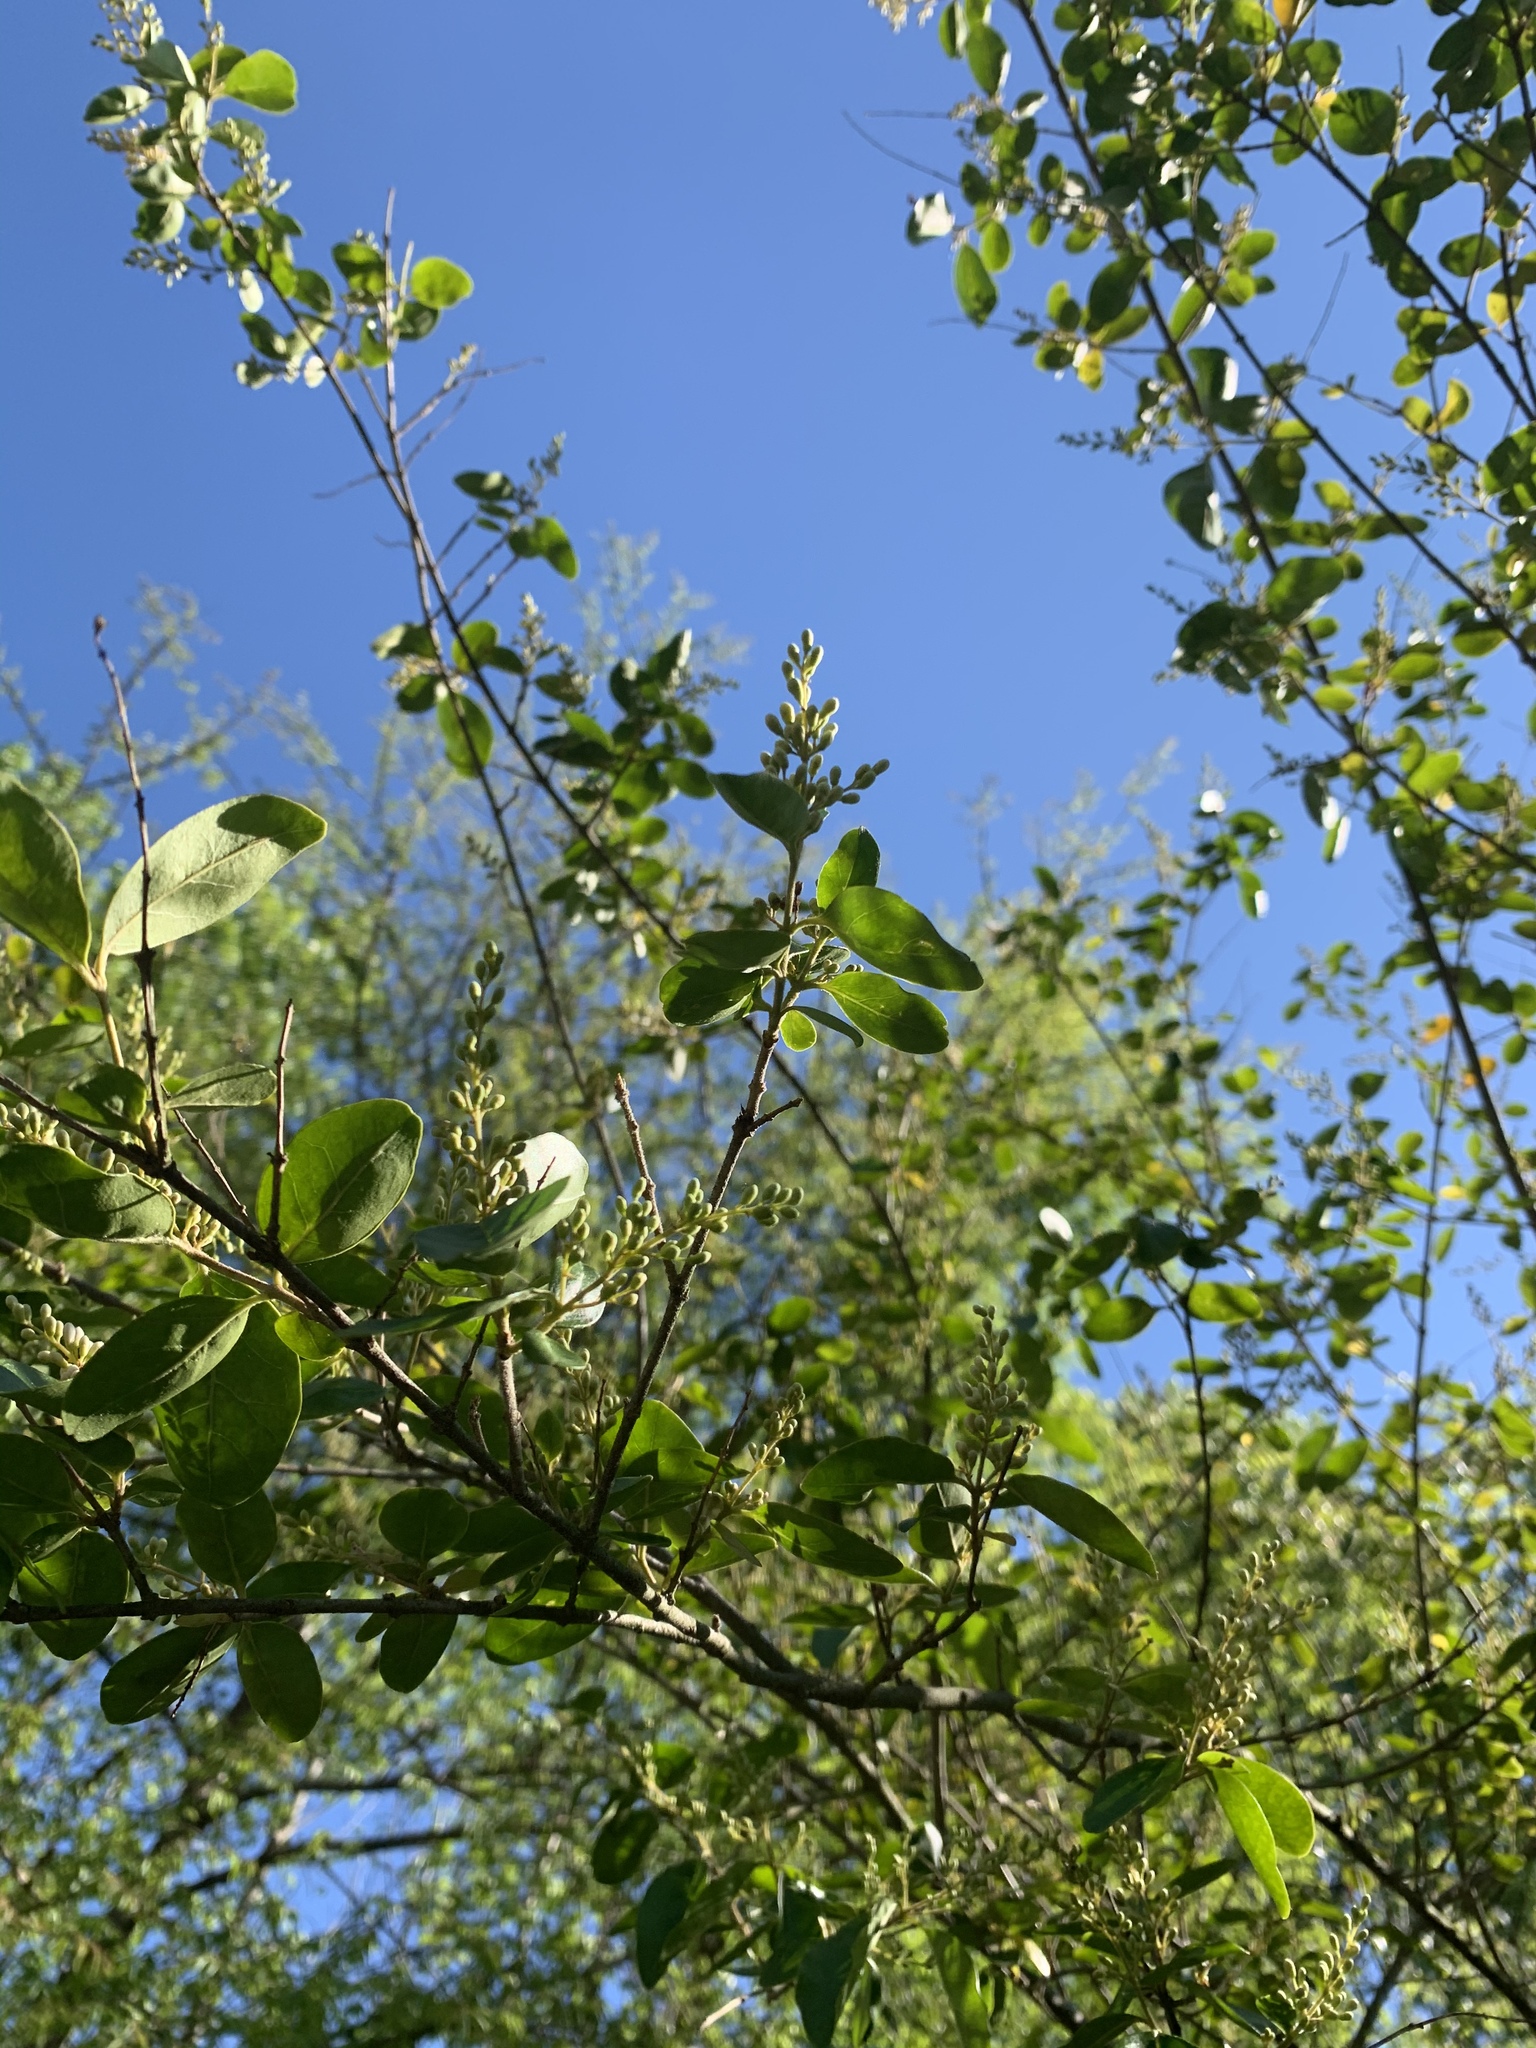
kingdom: Plantae
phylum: Tracheophyta
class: Magnoliopsida
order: Lamiales
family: Oleaceae
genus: Ligustrum
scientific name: Ligustrum sinense
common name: Chinese privet
